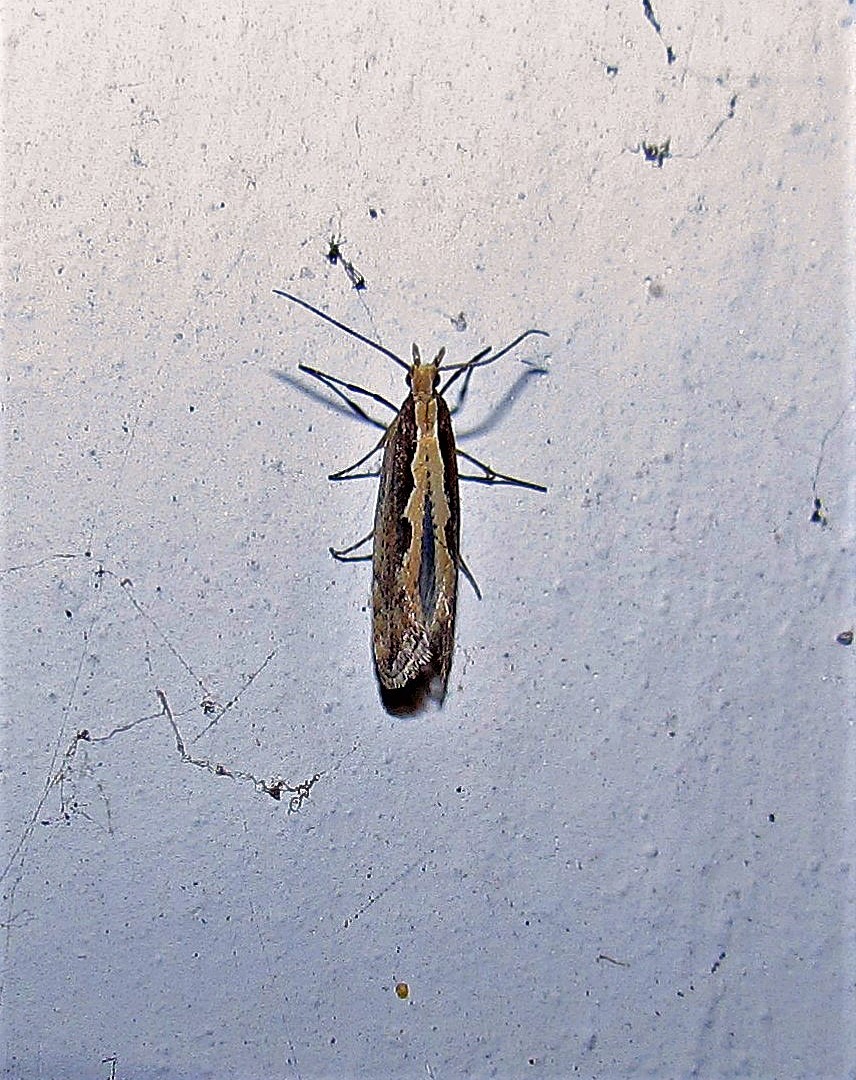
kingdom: Animalia
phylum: Arthropoda
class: Insecta
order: Lepidoptera
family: Plutellidae
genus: Plutella
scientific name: Plutella xylostella
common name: Diamond-back moth
